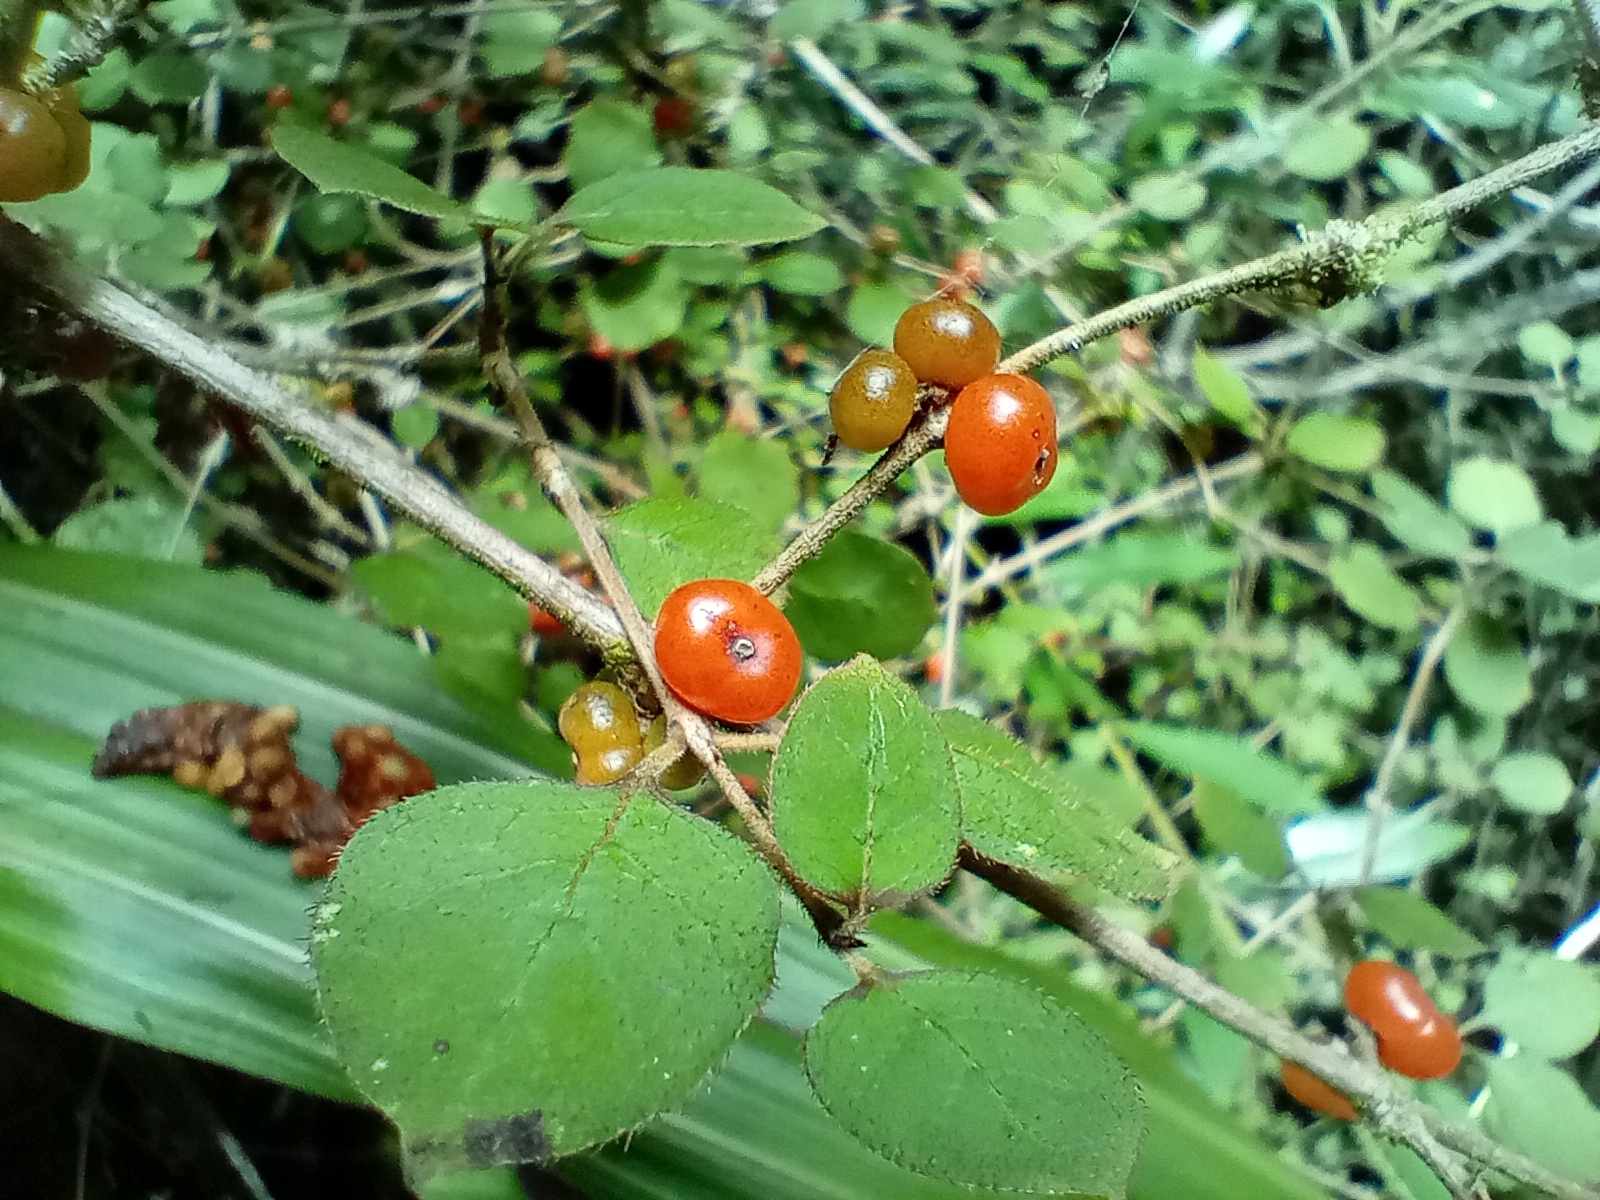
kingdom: Plantae
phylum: Tracheophyta
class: Magnoliopsida
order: Gentianales
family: Rubiaceae
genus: Coprosma
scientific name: Coprosma rotundifolia
